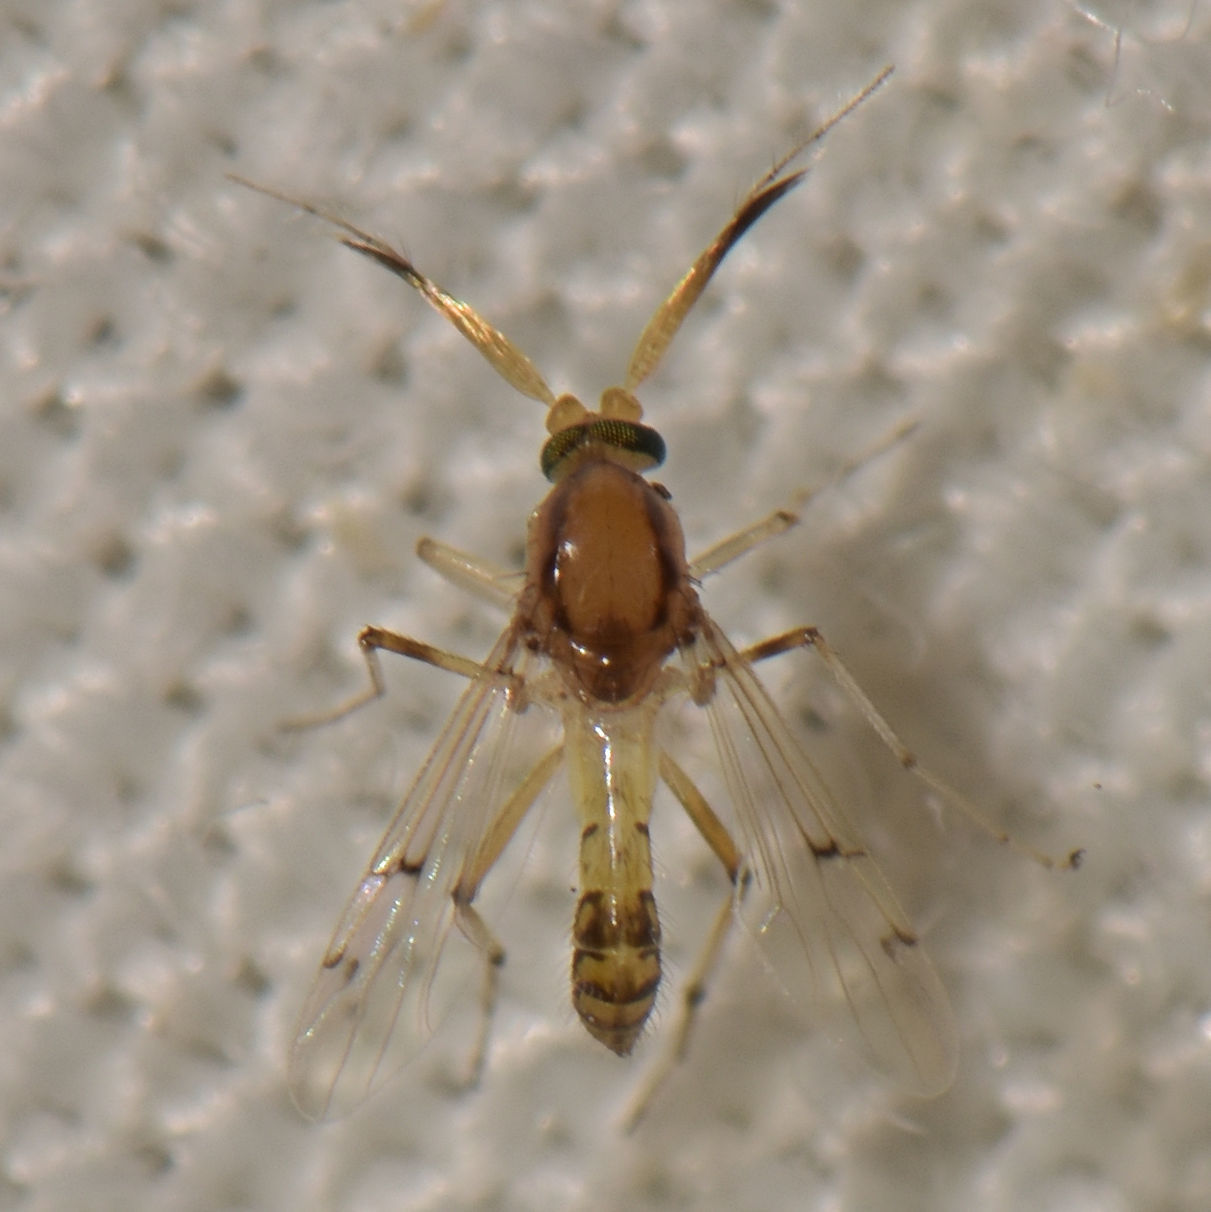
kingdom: Animalia
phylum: Arthropoda
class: Insecta
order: Diptera
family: Ceratopogonidae
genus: Stilobezzia
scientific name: Stilobezzia coquilletti
